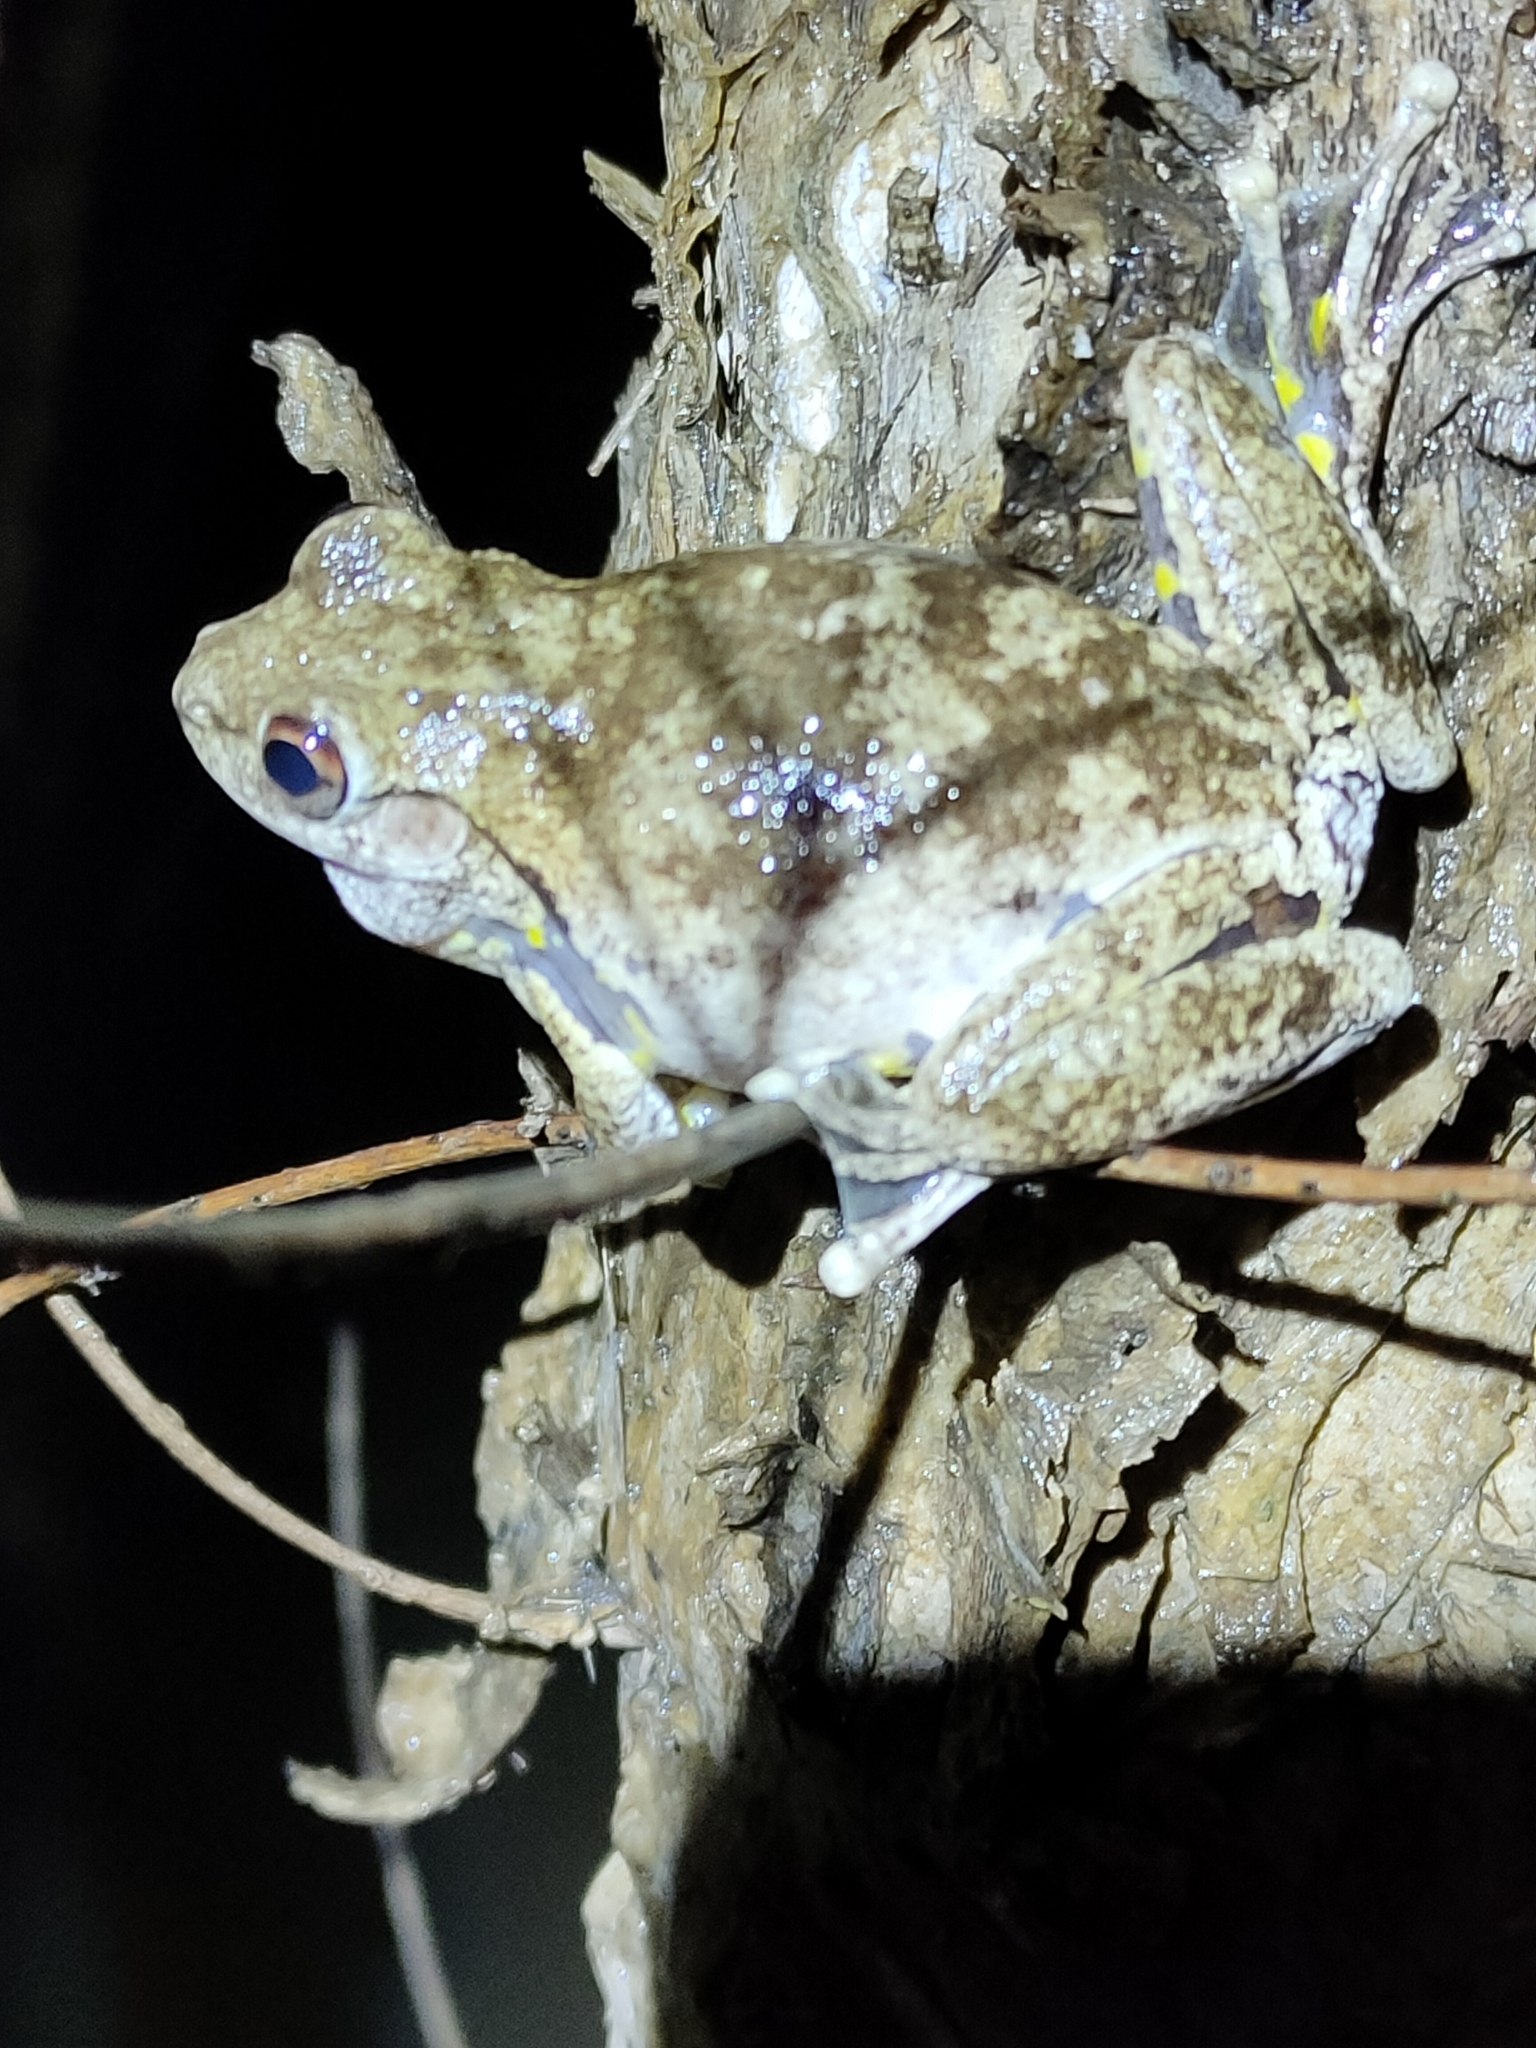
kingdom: Animalia
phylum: Chordata
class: Amphibia
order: Anura
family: Pelodryadidae
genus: Litoria
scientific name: Litoria rothii
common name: Roth’s tree frog
